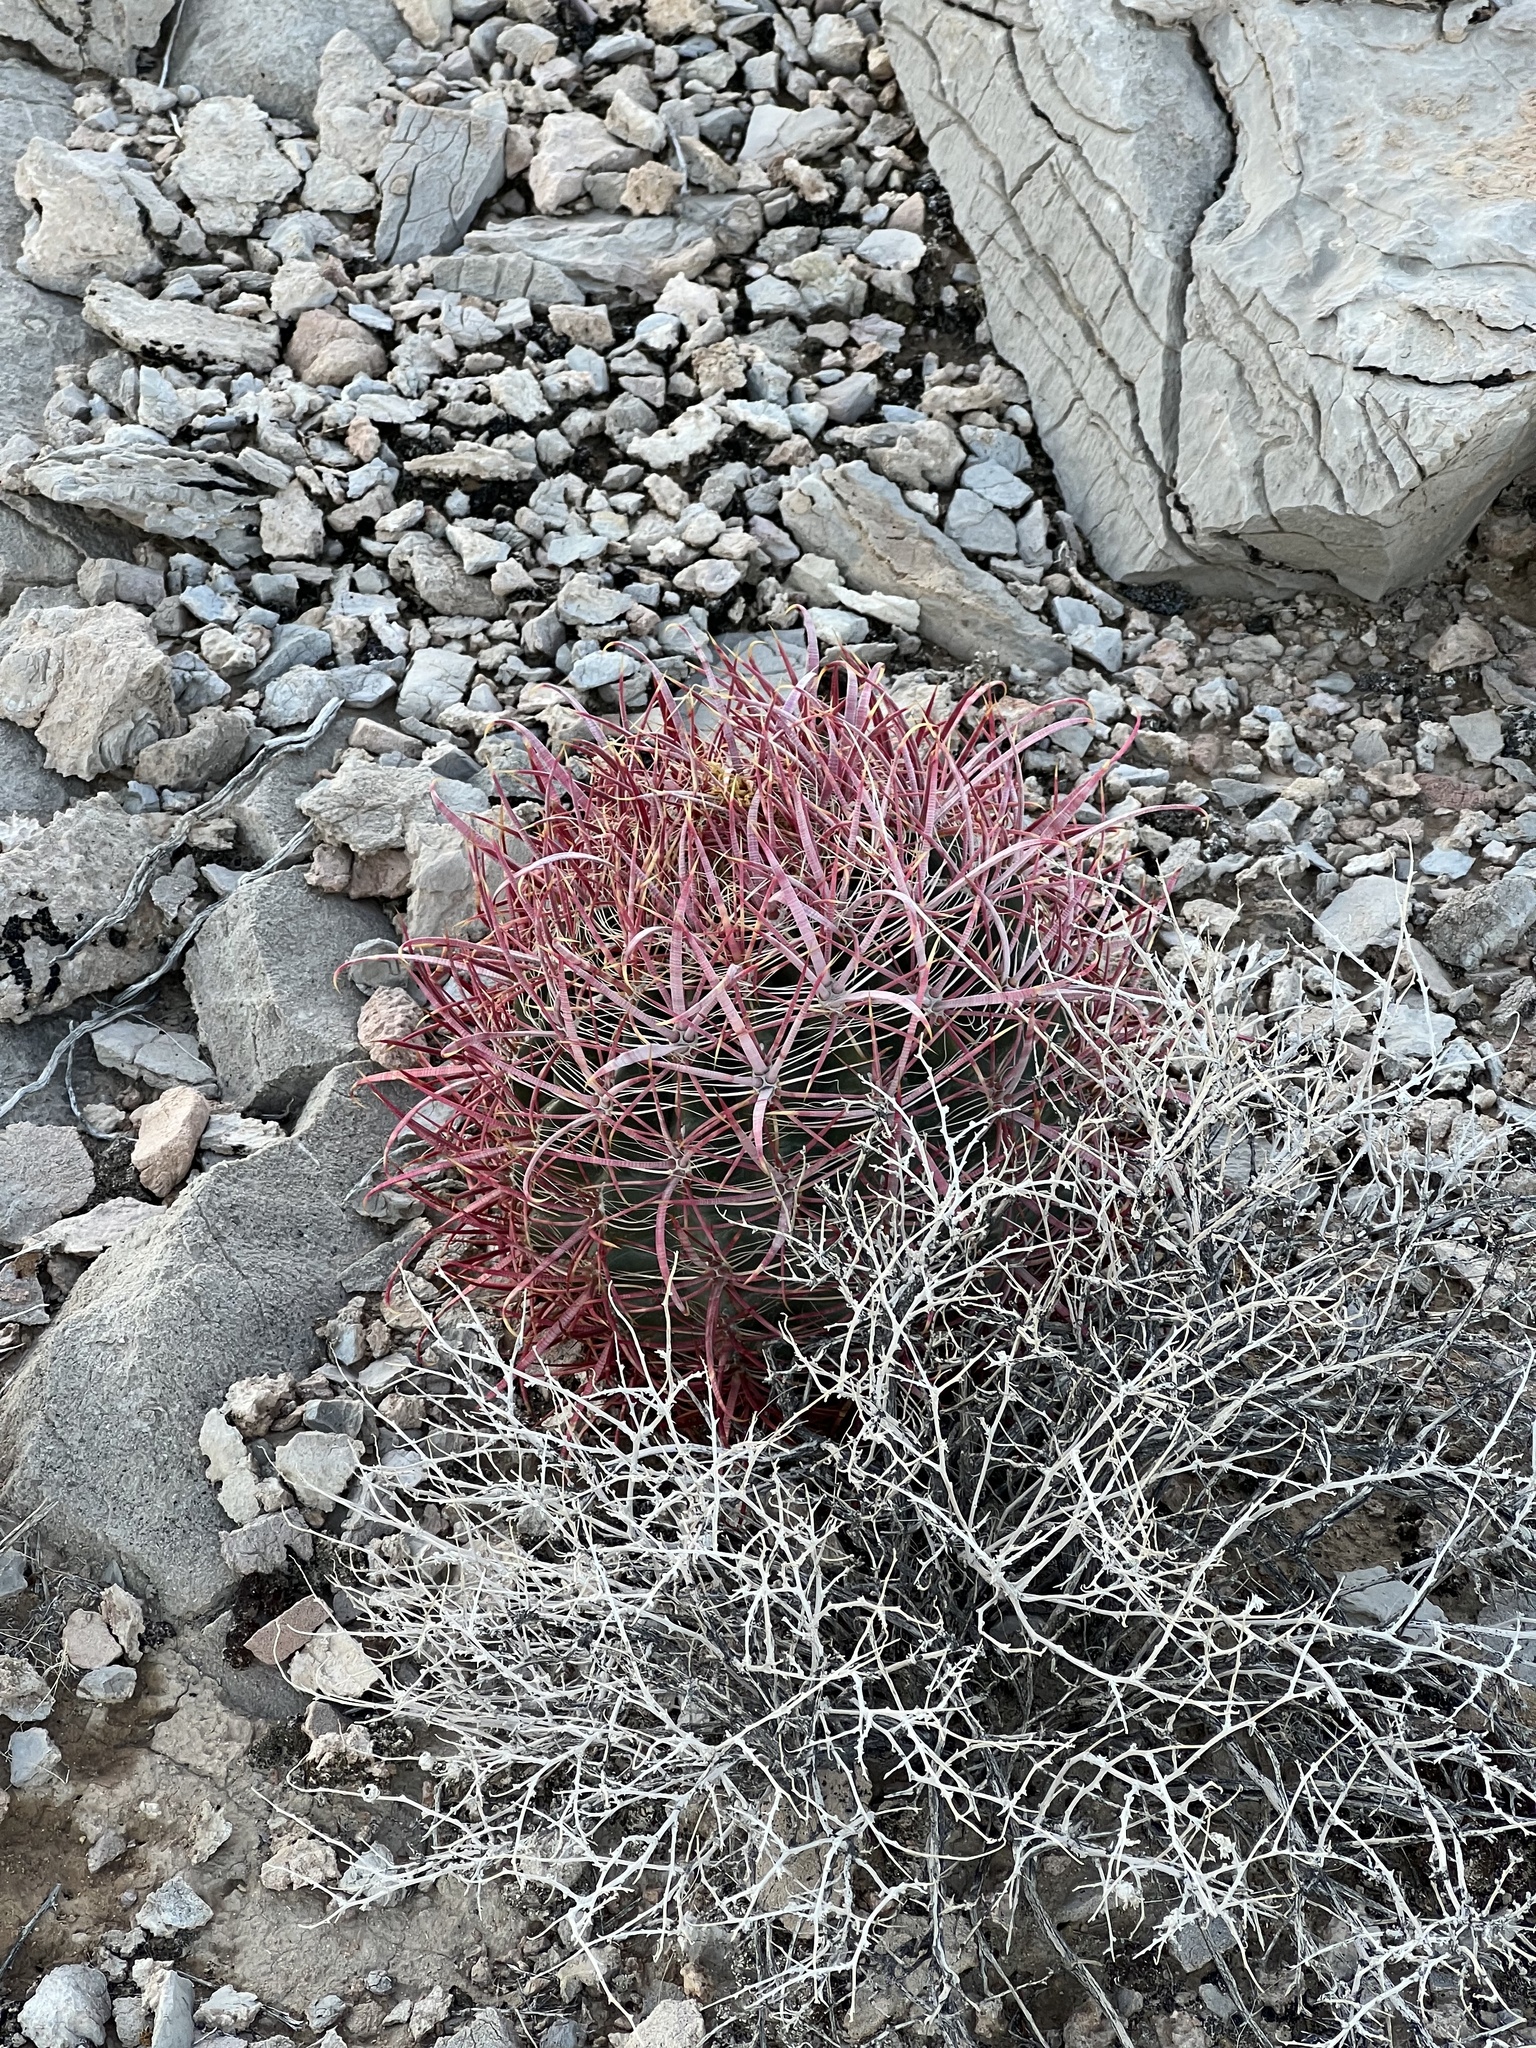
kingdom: Plantae
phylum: Tracheophyta
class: Magnoliopsida
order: Caryophyllales
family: Cactaceae
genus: Ferocactus
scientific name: Ferocactus cylindraceus
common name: California barrel cactus
